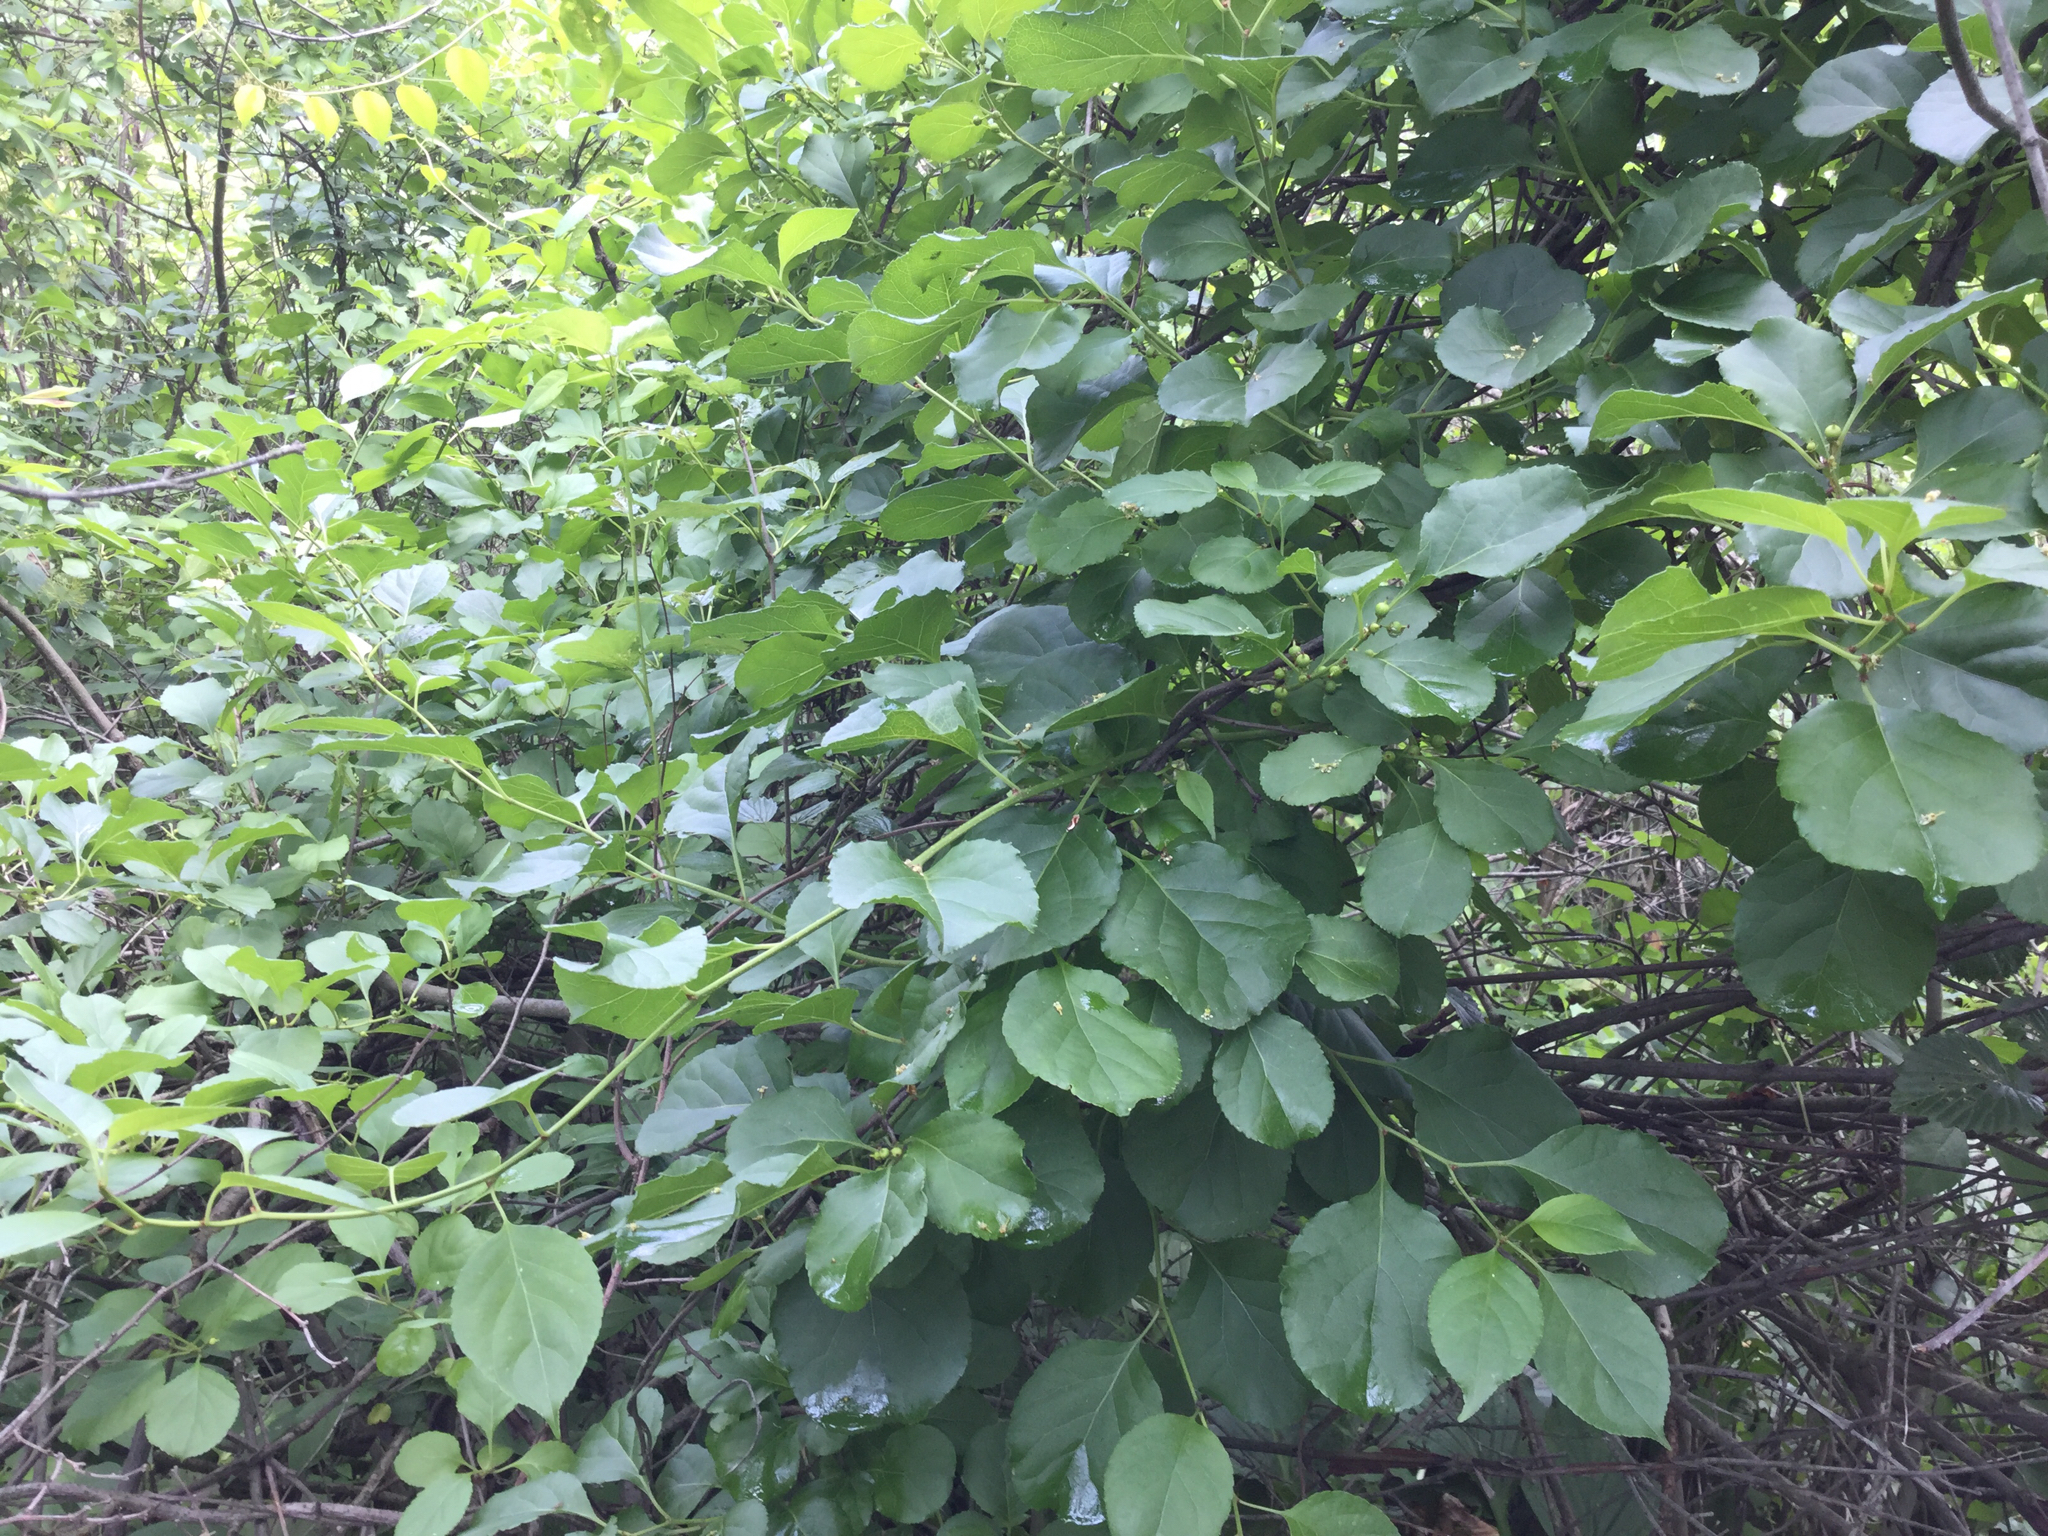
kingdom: Plantae
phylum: Tracheophyta
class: Magnoliopsida
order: Celastrales
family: Celastraceae
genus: Celastrus
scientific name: Celastrus orbiculatus
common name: Oriental bittersweet
